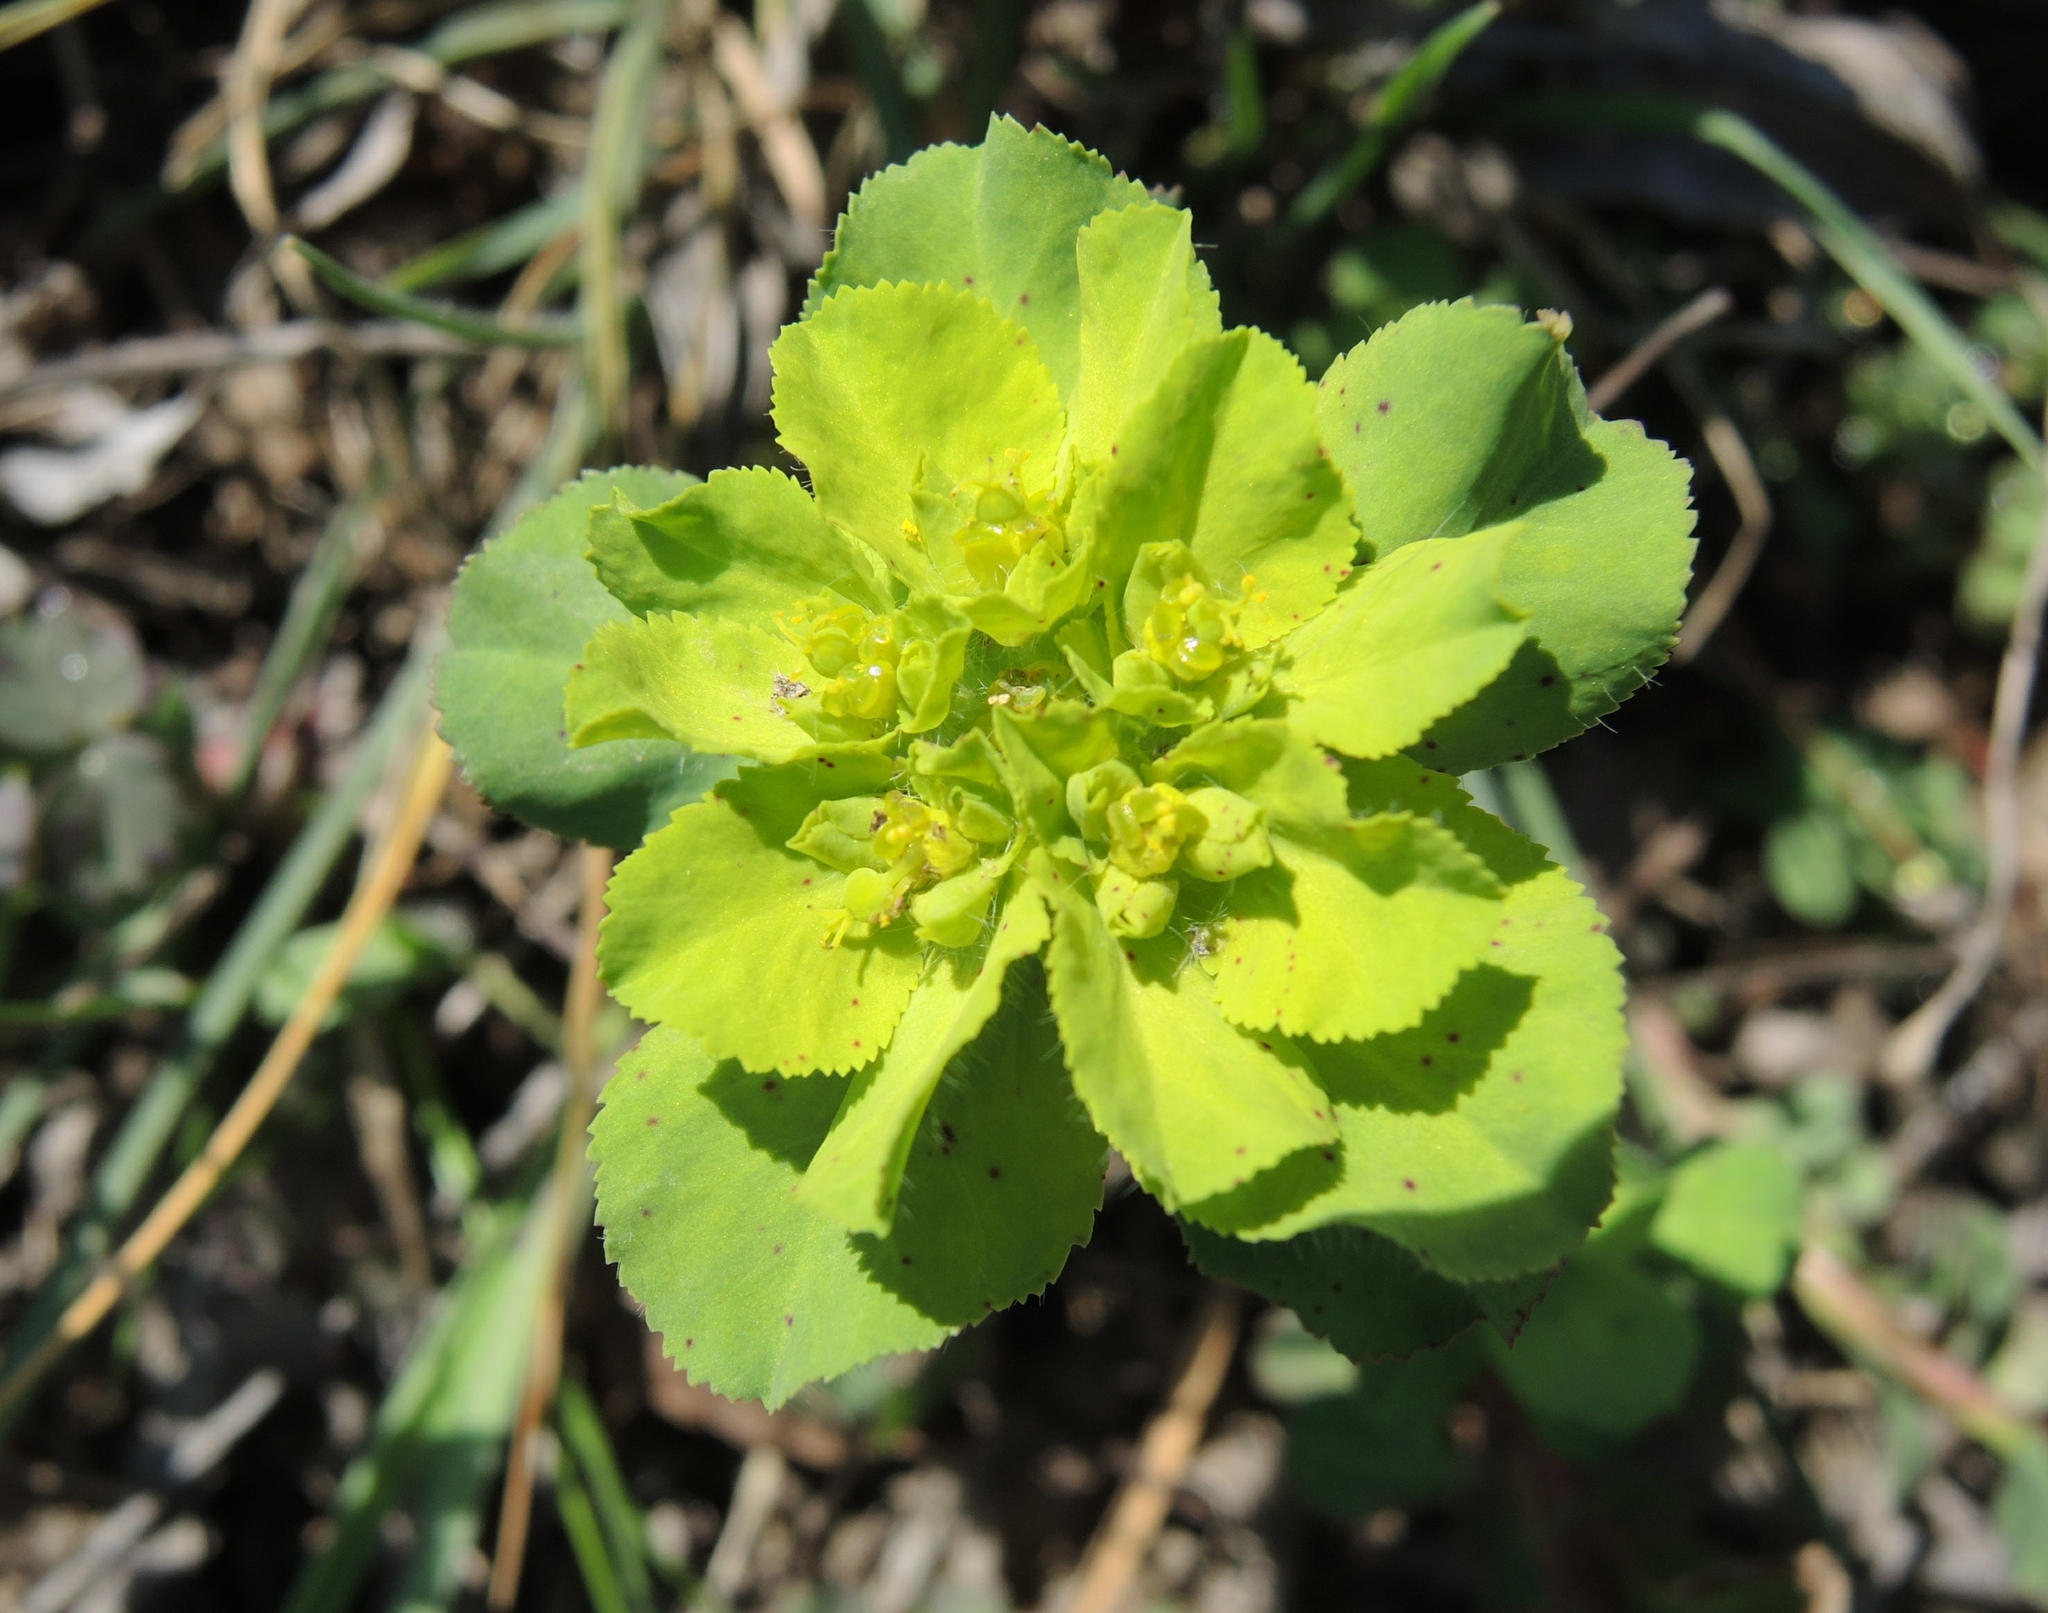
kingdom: Plantae
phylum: Tracheophyta
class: Magnoliopsida
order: Malpighiales
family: Euphorbiaceae
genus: Euphorbia
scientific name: Euphorbia helioscopia
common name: Sun spurge
